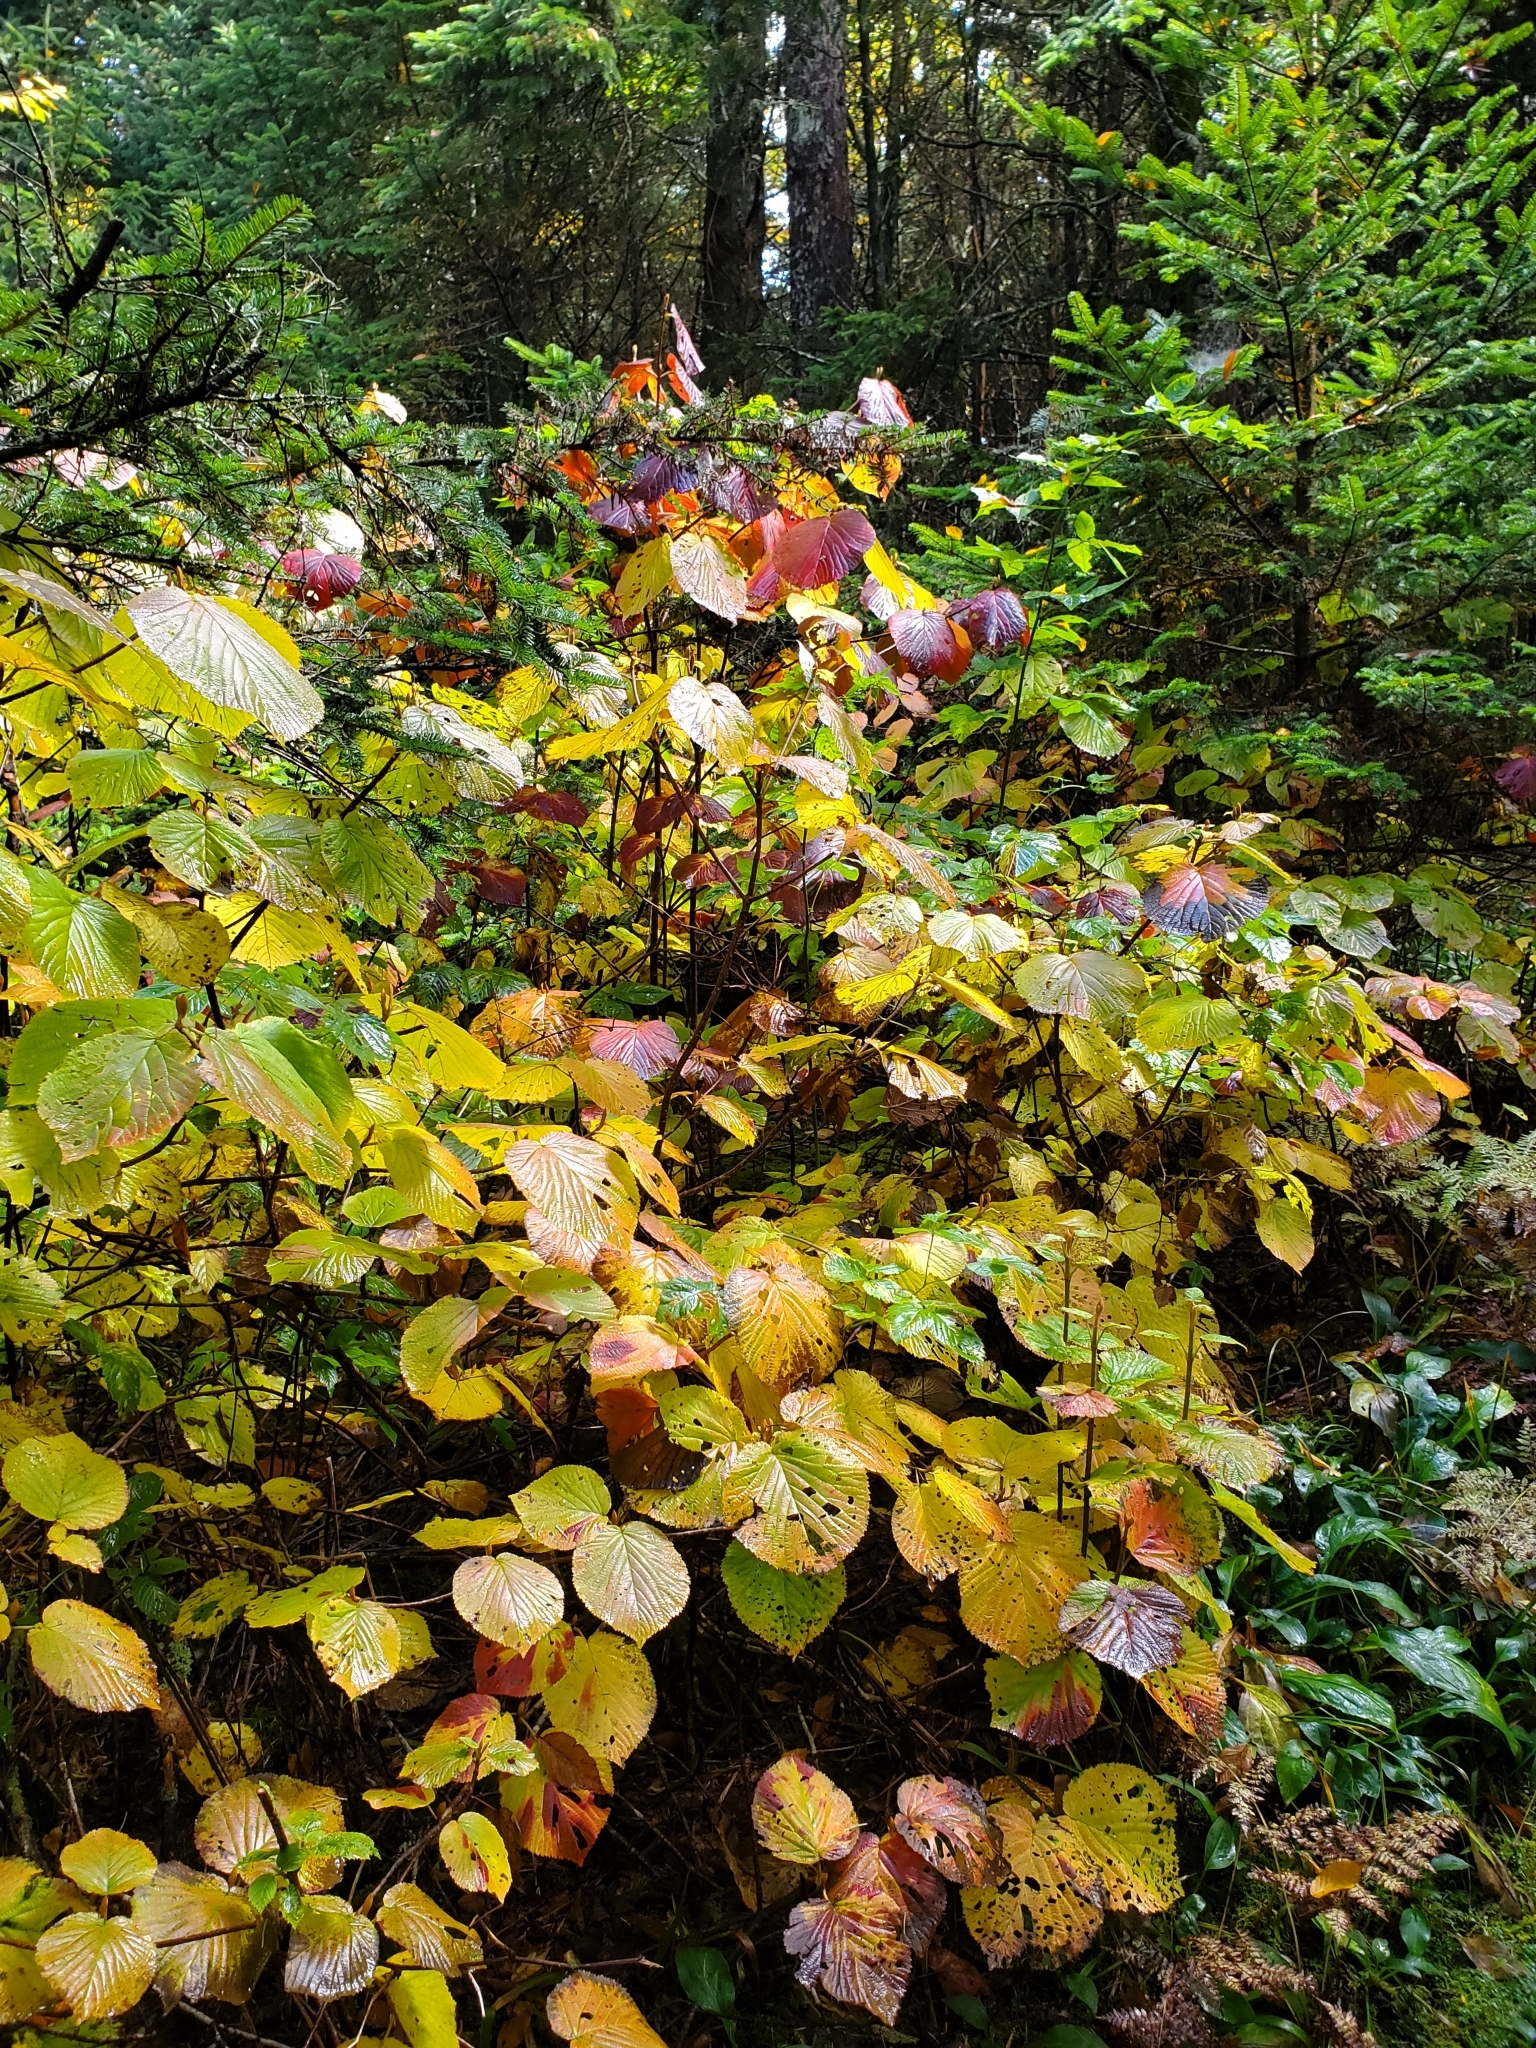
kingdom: Plantae
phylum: Tracheophyta
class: Magnoliopsida
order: Dipsacales
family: Viburnaceae
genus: Viburnum
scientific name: Viburnum lantanoides
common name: Hobblebush
